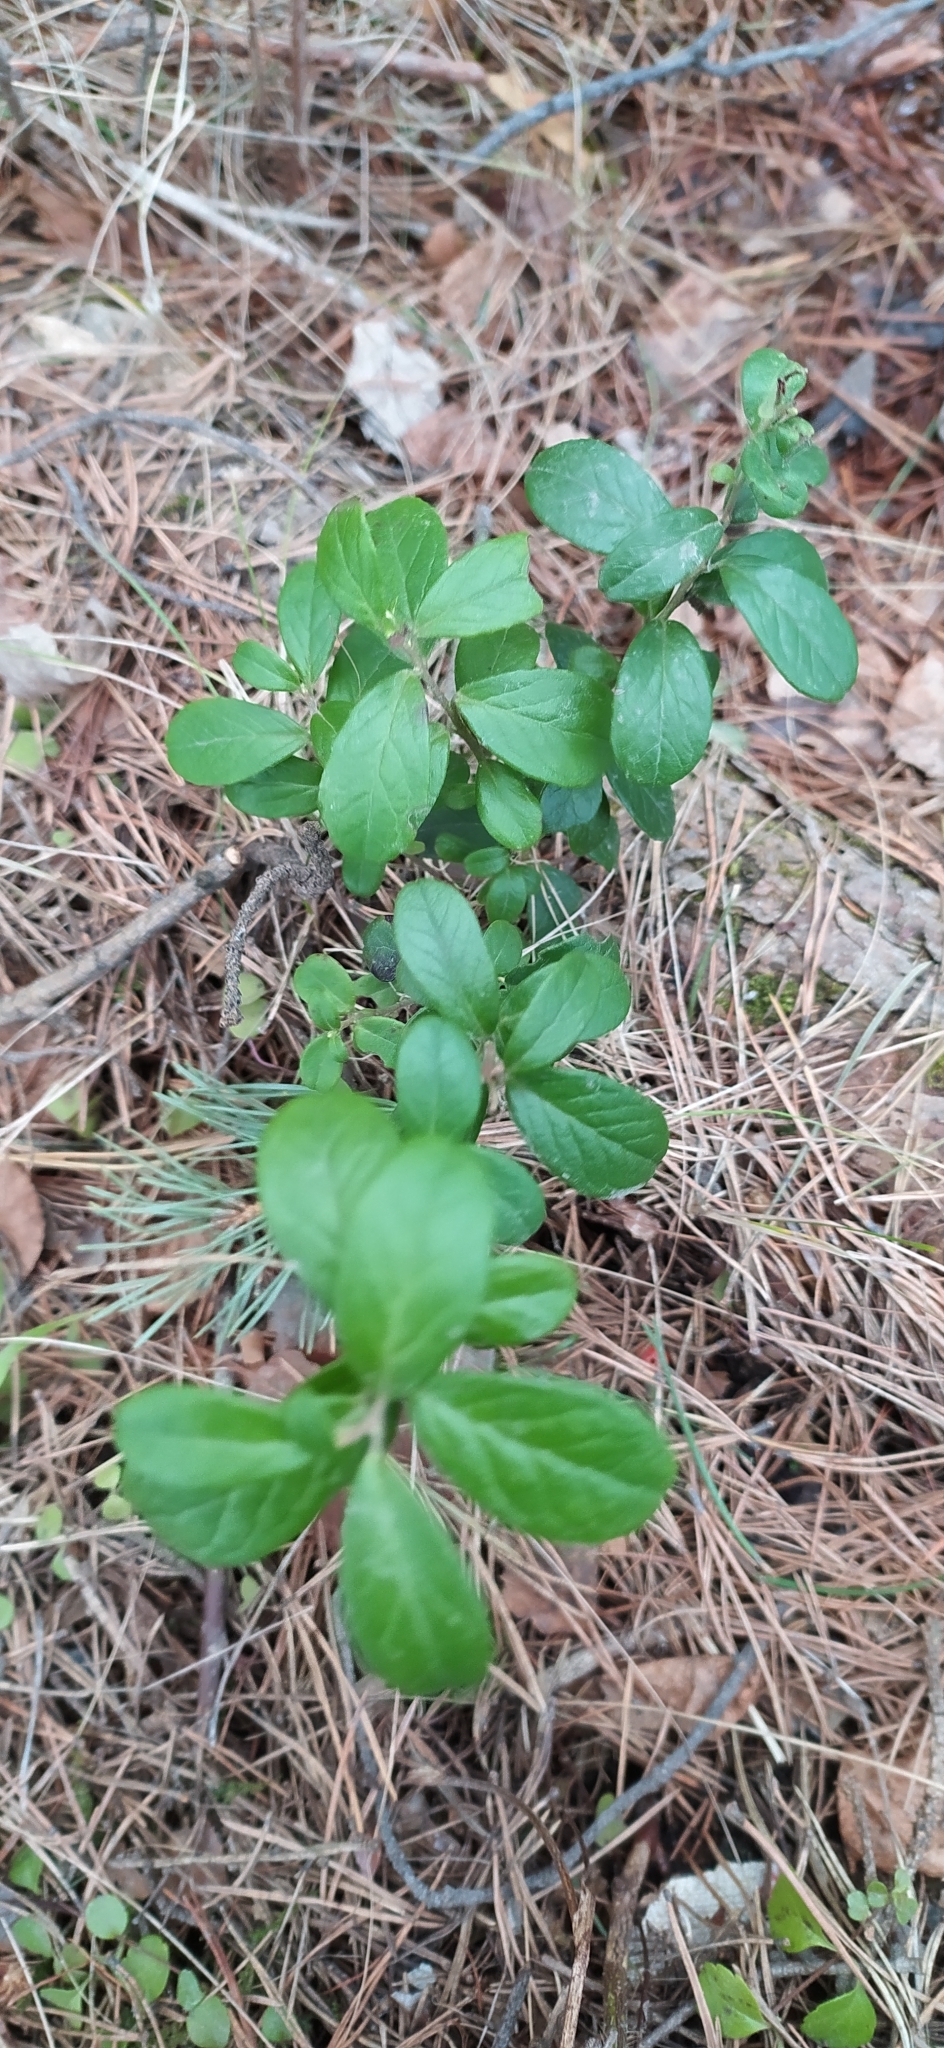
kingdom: Plantae
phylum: Tracheophyta
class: Magnoliopsida
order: Ericales
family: Ericaceae
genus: Vaccinium
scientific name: Vaccinium vitis-idaea
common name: Cowberry
